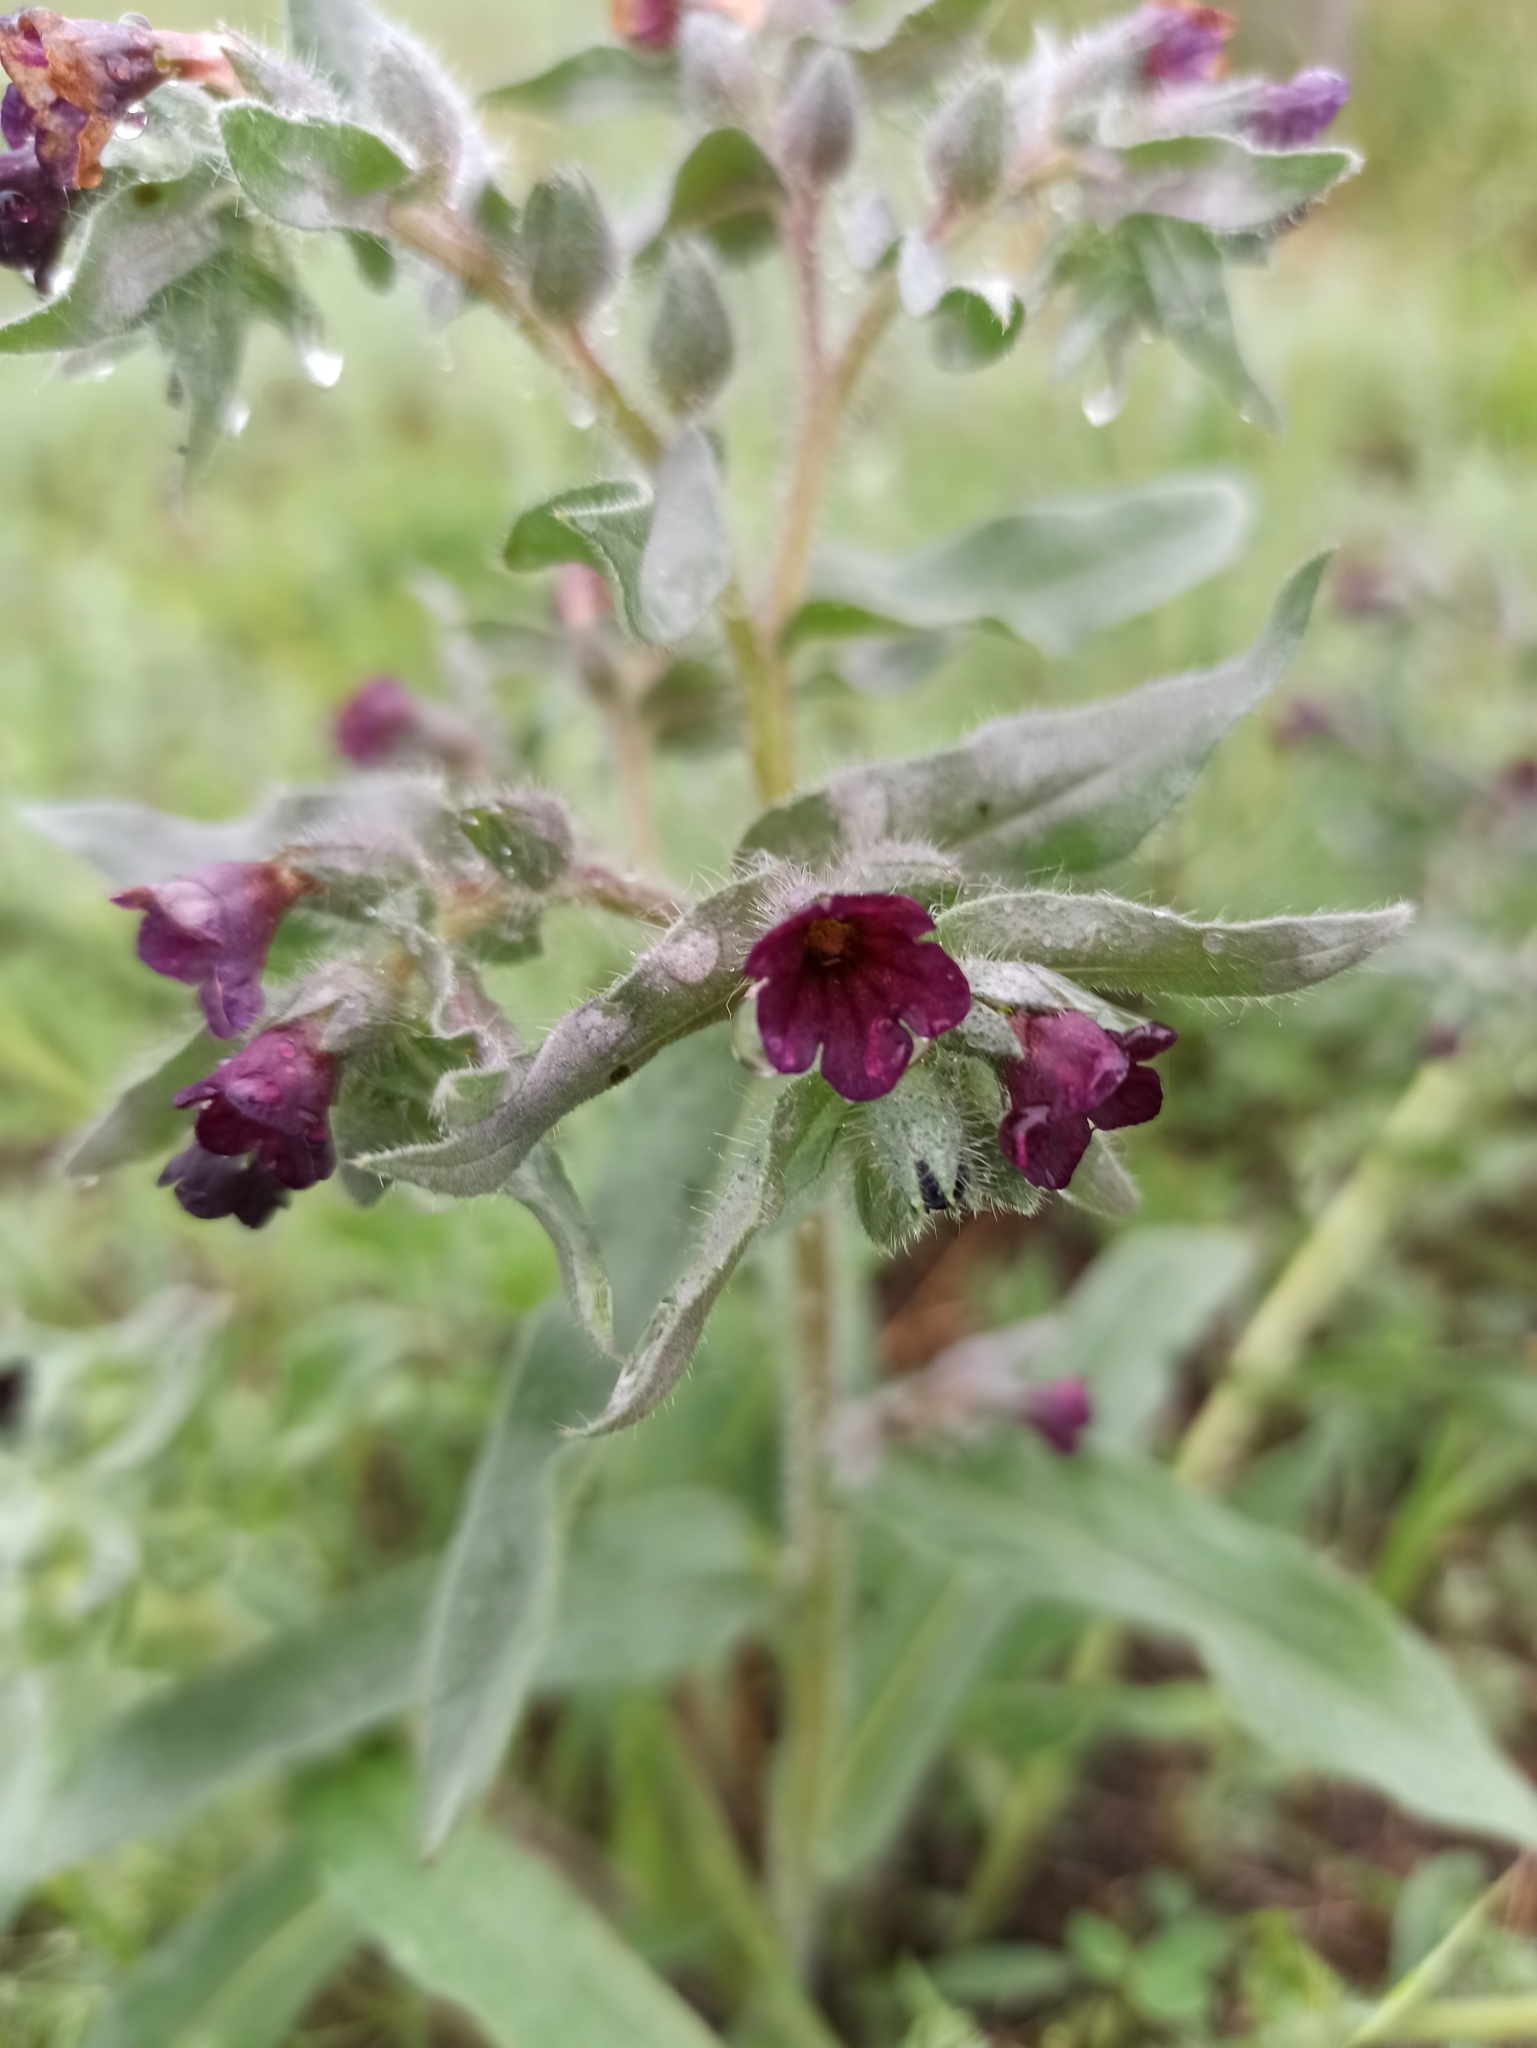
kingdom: Plantae
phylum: Tracheophyta
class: Magnoliopsida
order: Boraginales
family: Boraginaceae
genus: Nonea
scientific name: Nonea pulla
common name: Brown nonea
